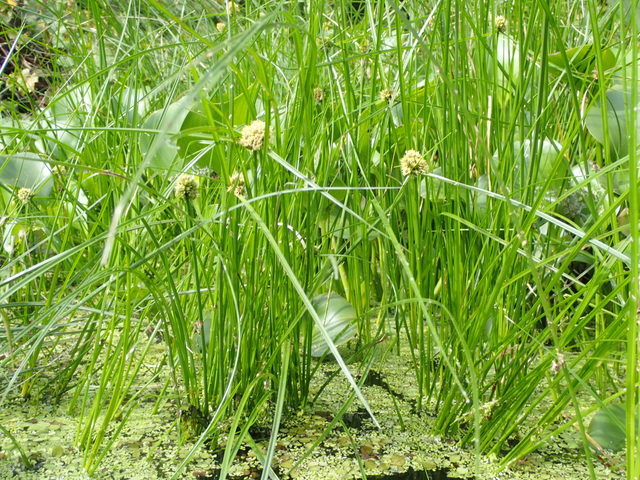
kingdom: Plantae
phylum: Tracheophyta
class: Liliopsida
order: Poales
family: Cyperaceae
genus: Cyperus
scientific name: Cyperus blepharoleptos
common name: Cuban bulrush
